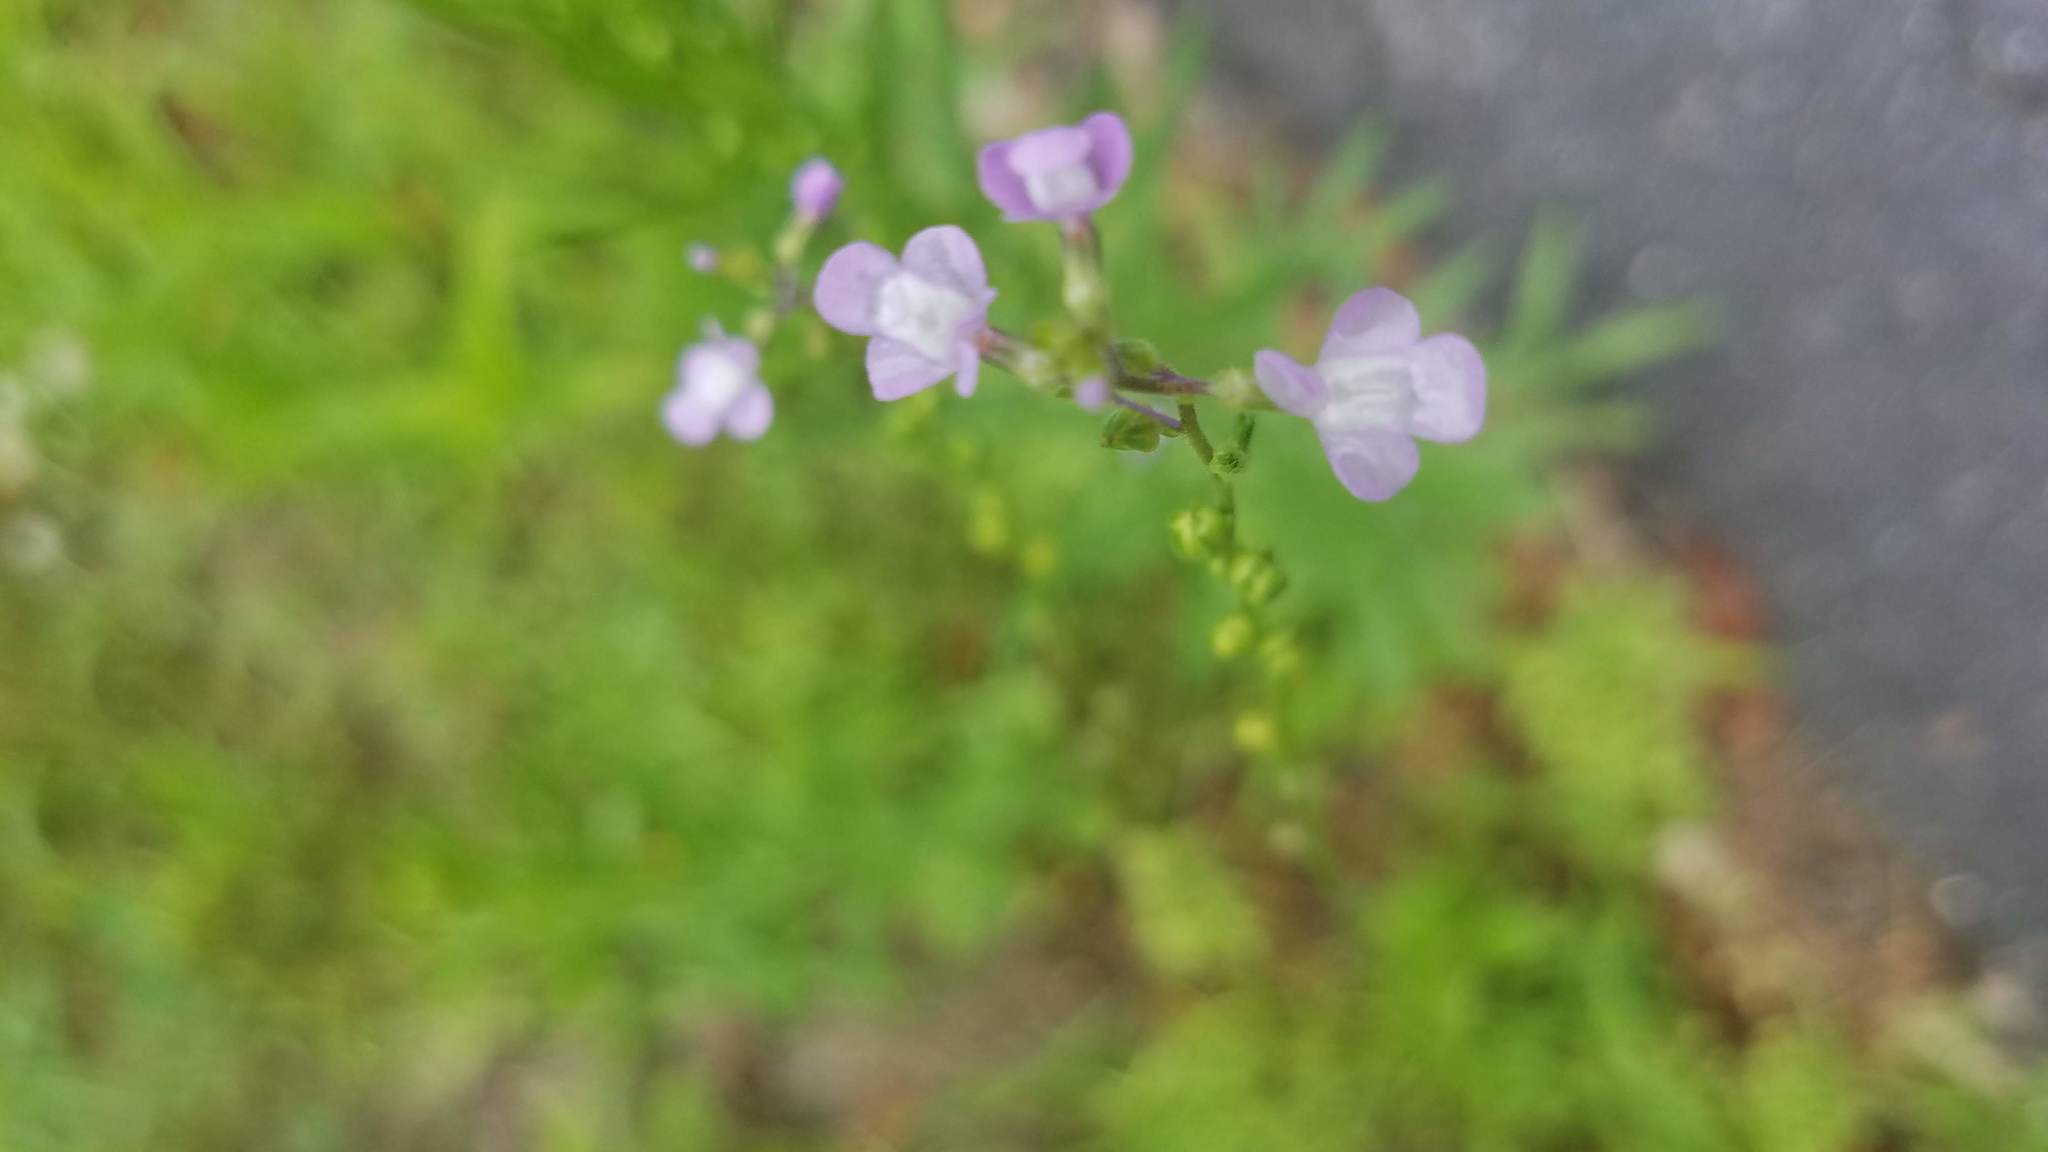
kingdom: Plantae
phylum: Tracheophyta
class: Magnoliopsida
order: Lamiales
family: Plantaginaceae
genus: Nuttallanthus
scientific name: Nuttallanthus canadensis
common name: Blue toadflax
